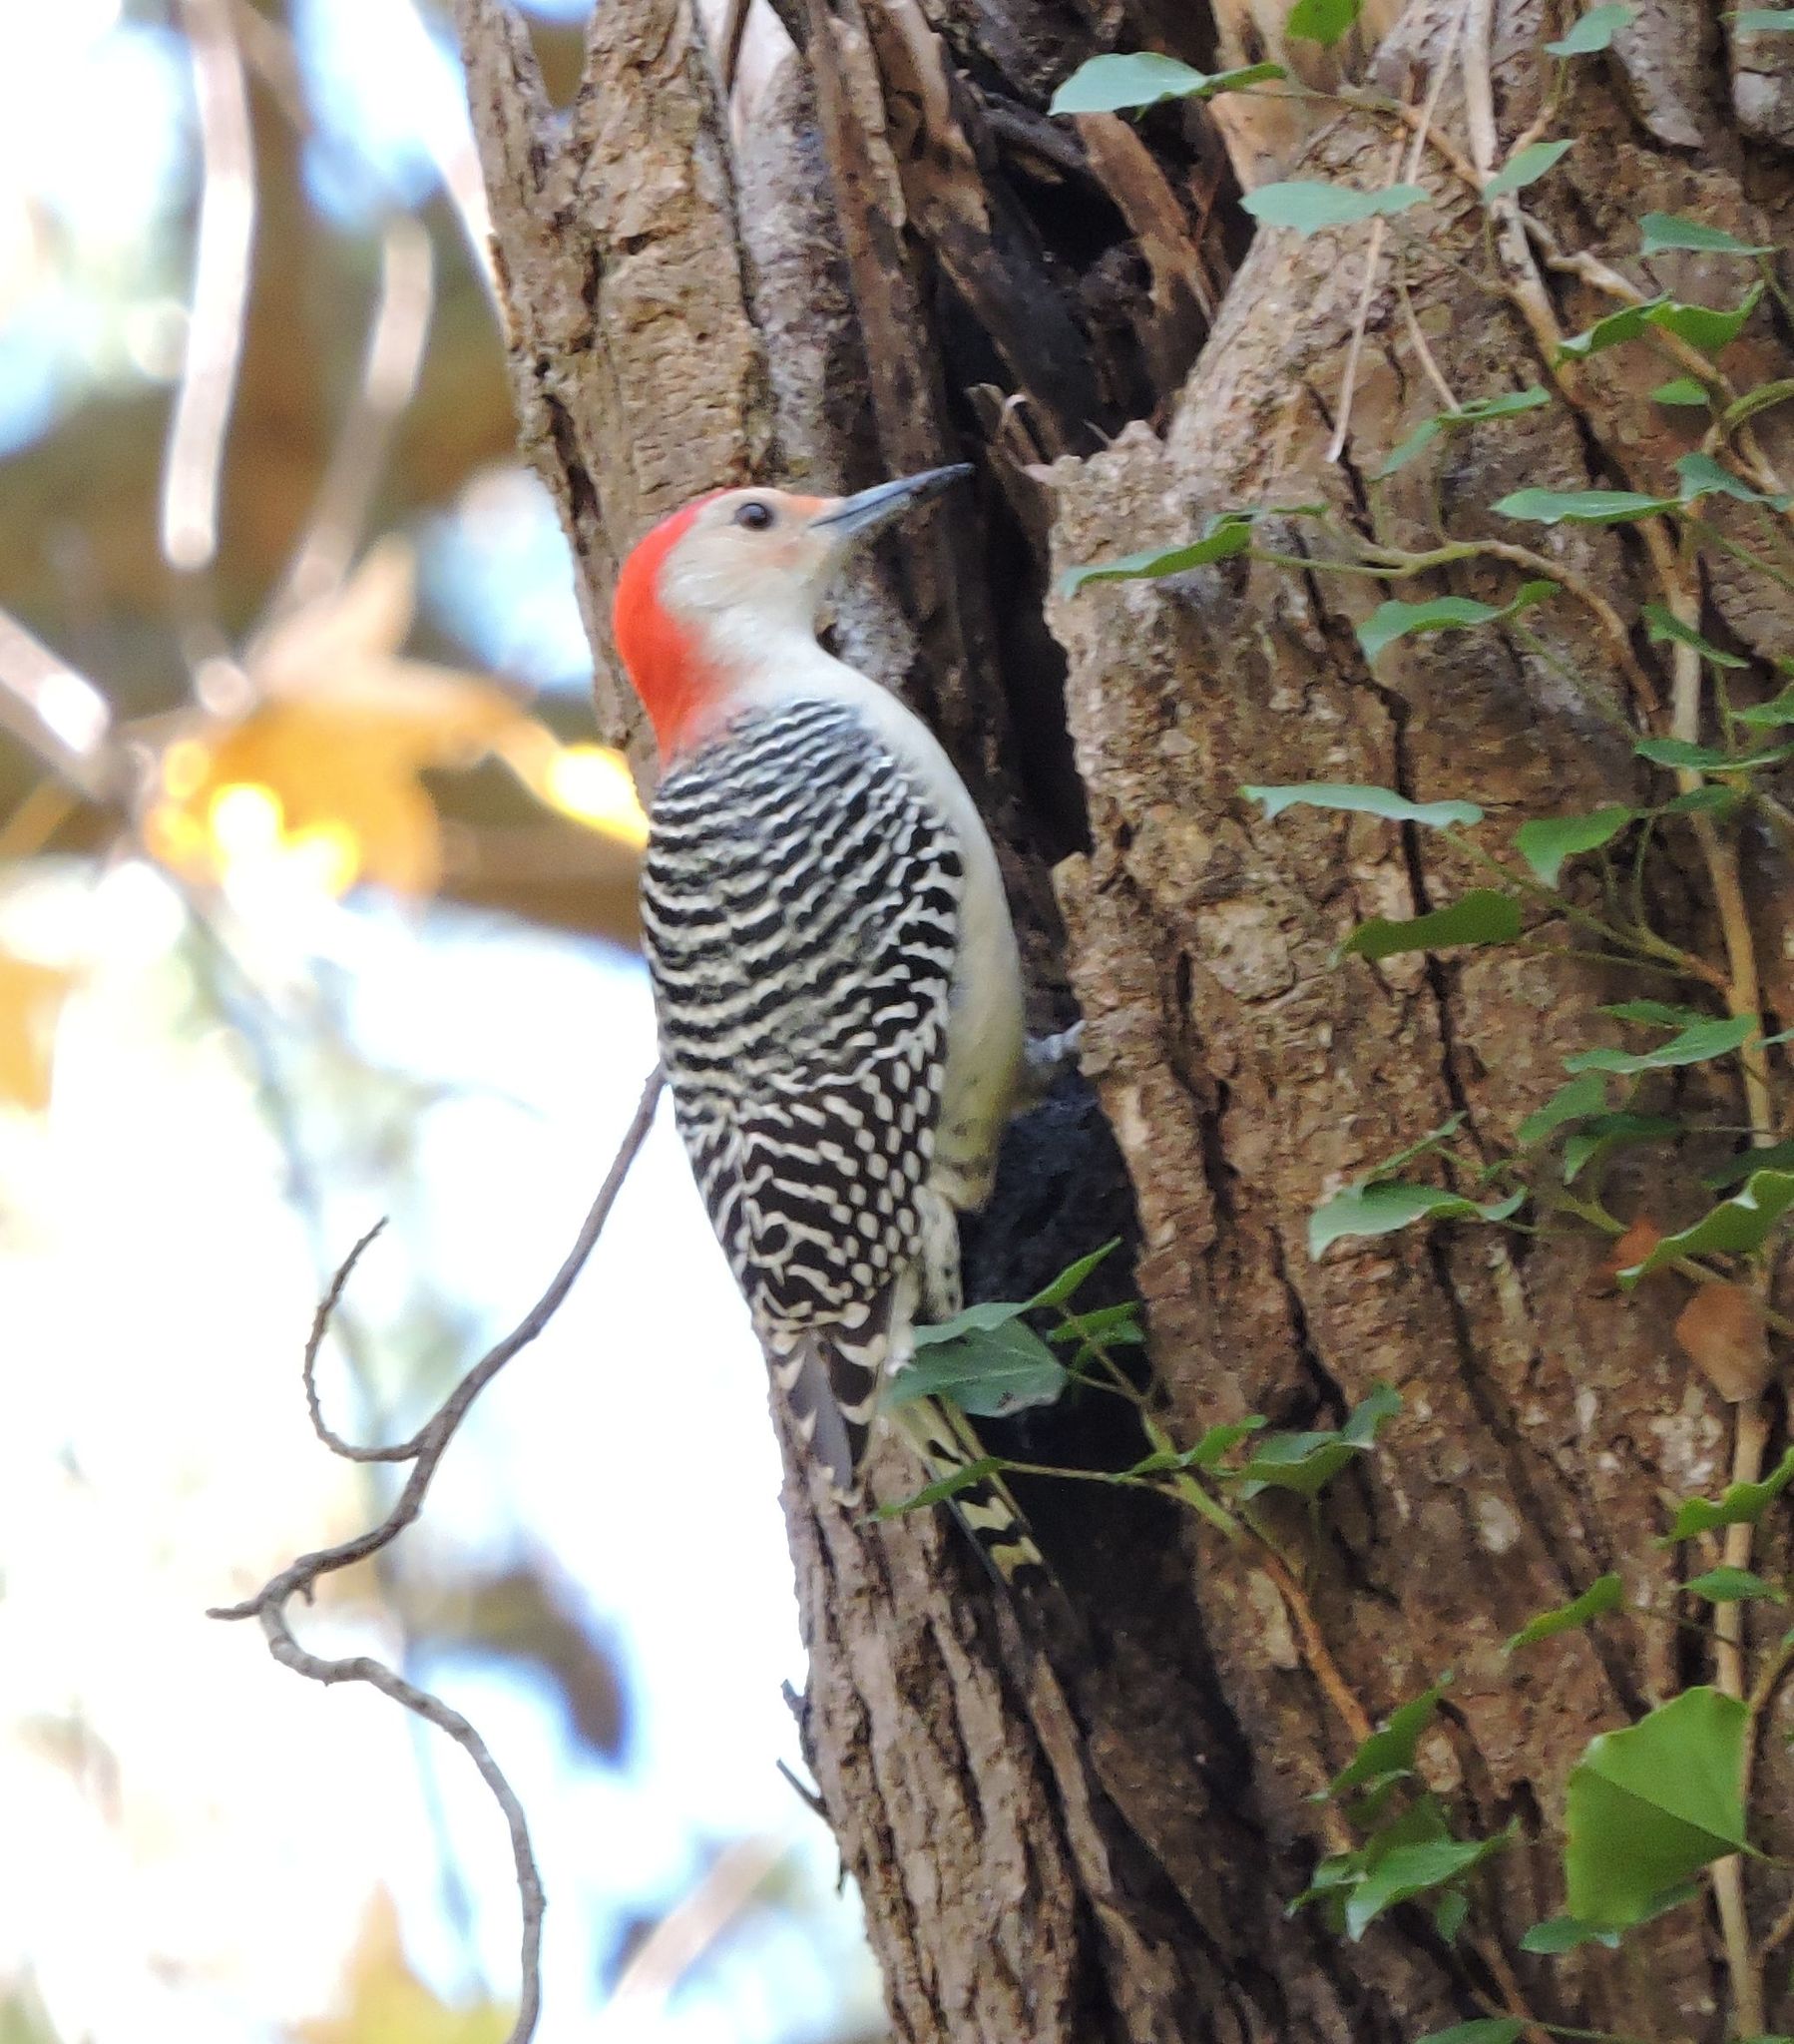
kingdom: Animalia
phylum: Chordata
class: Aves
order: Piciformes
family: Picidae
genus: Melanerpes
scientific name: Melanerpes carolinus
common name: Red-bellied woodpecker
